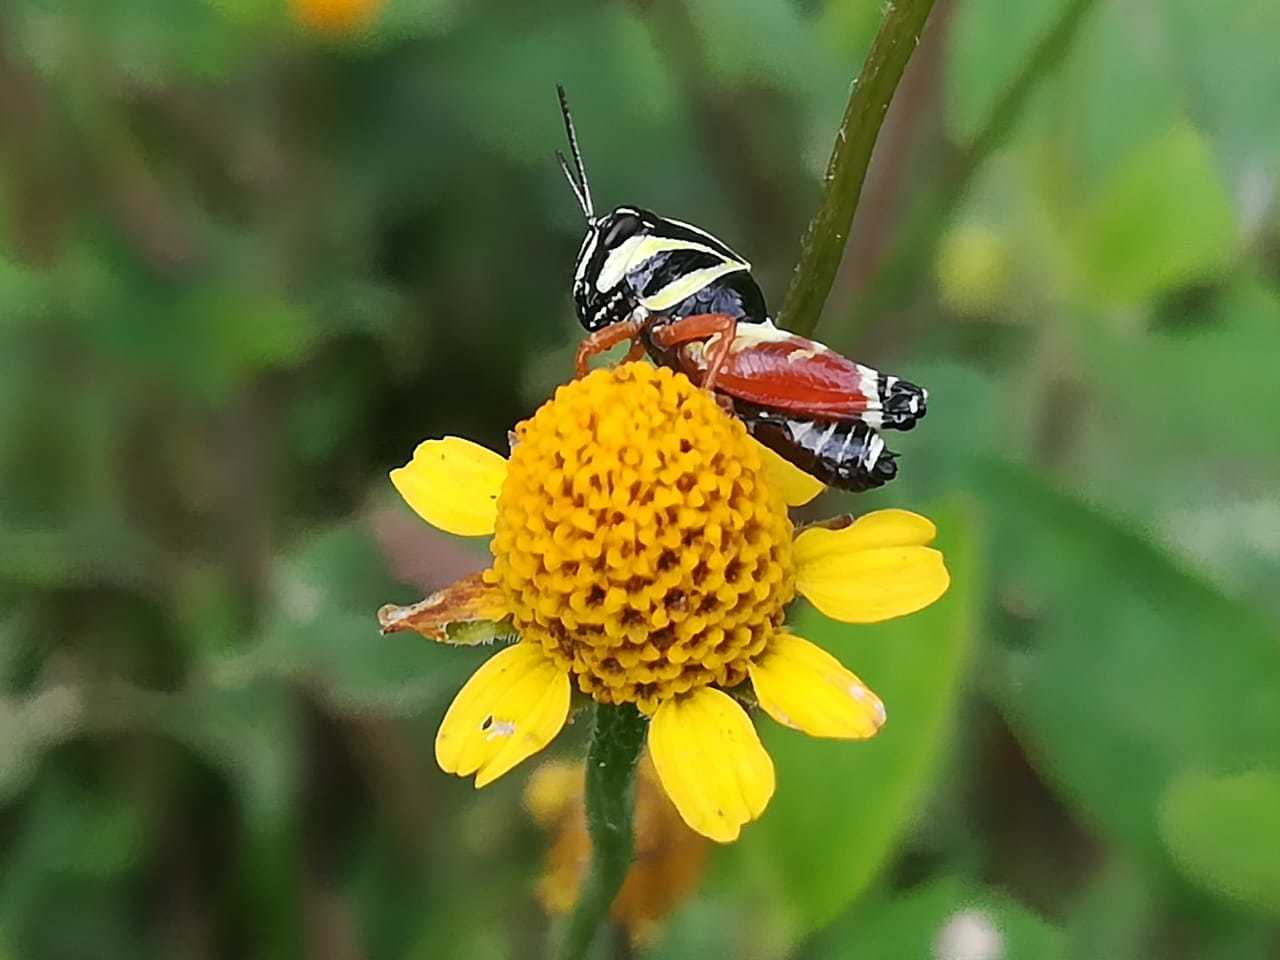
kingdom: Animalia
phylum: Arthropoda
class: Insecta
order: Orthoptera
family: Acrididae
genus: Aidemona
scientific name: Aidemona azteca
